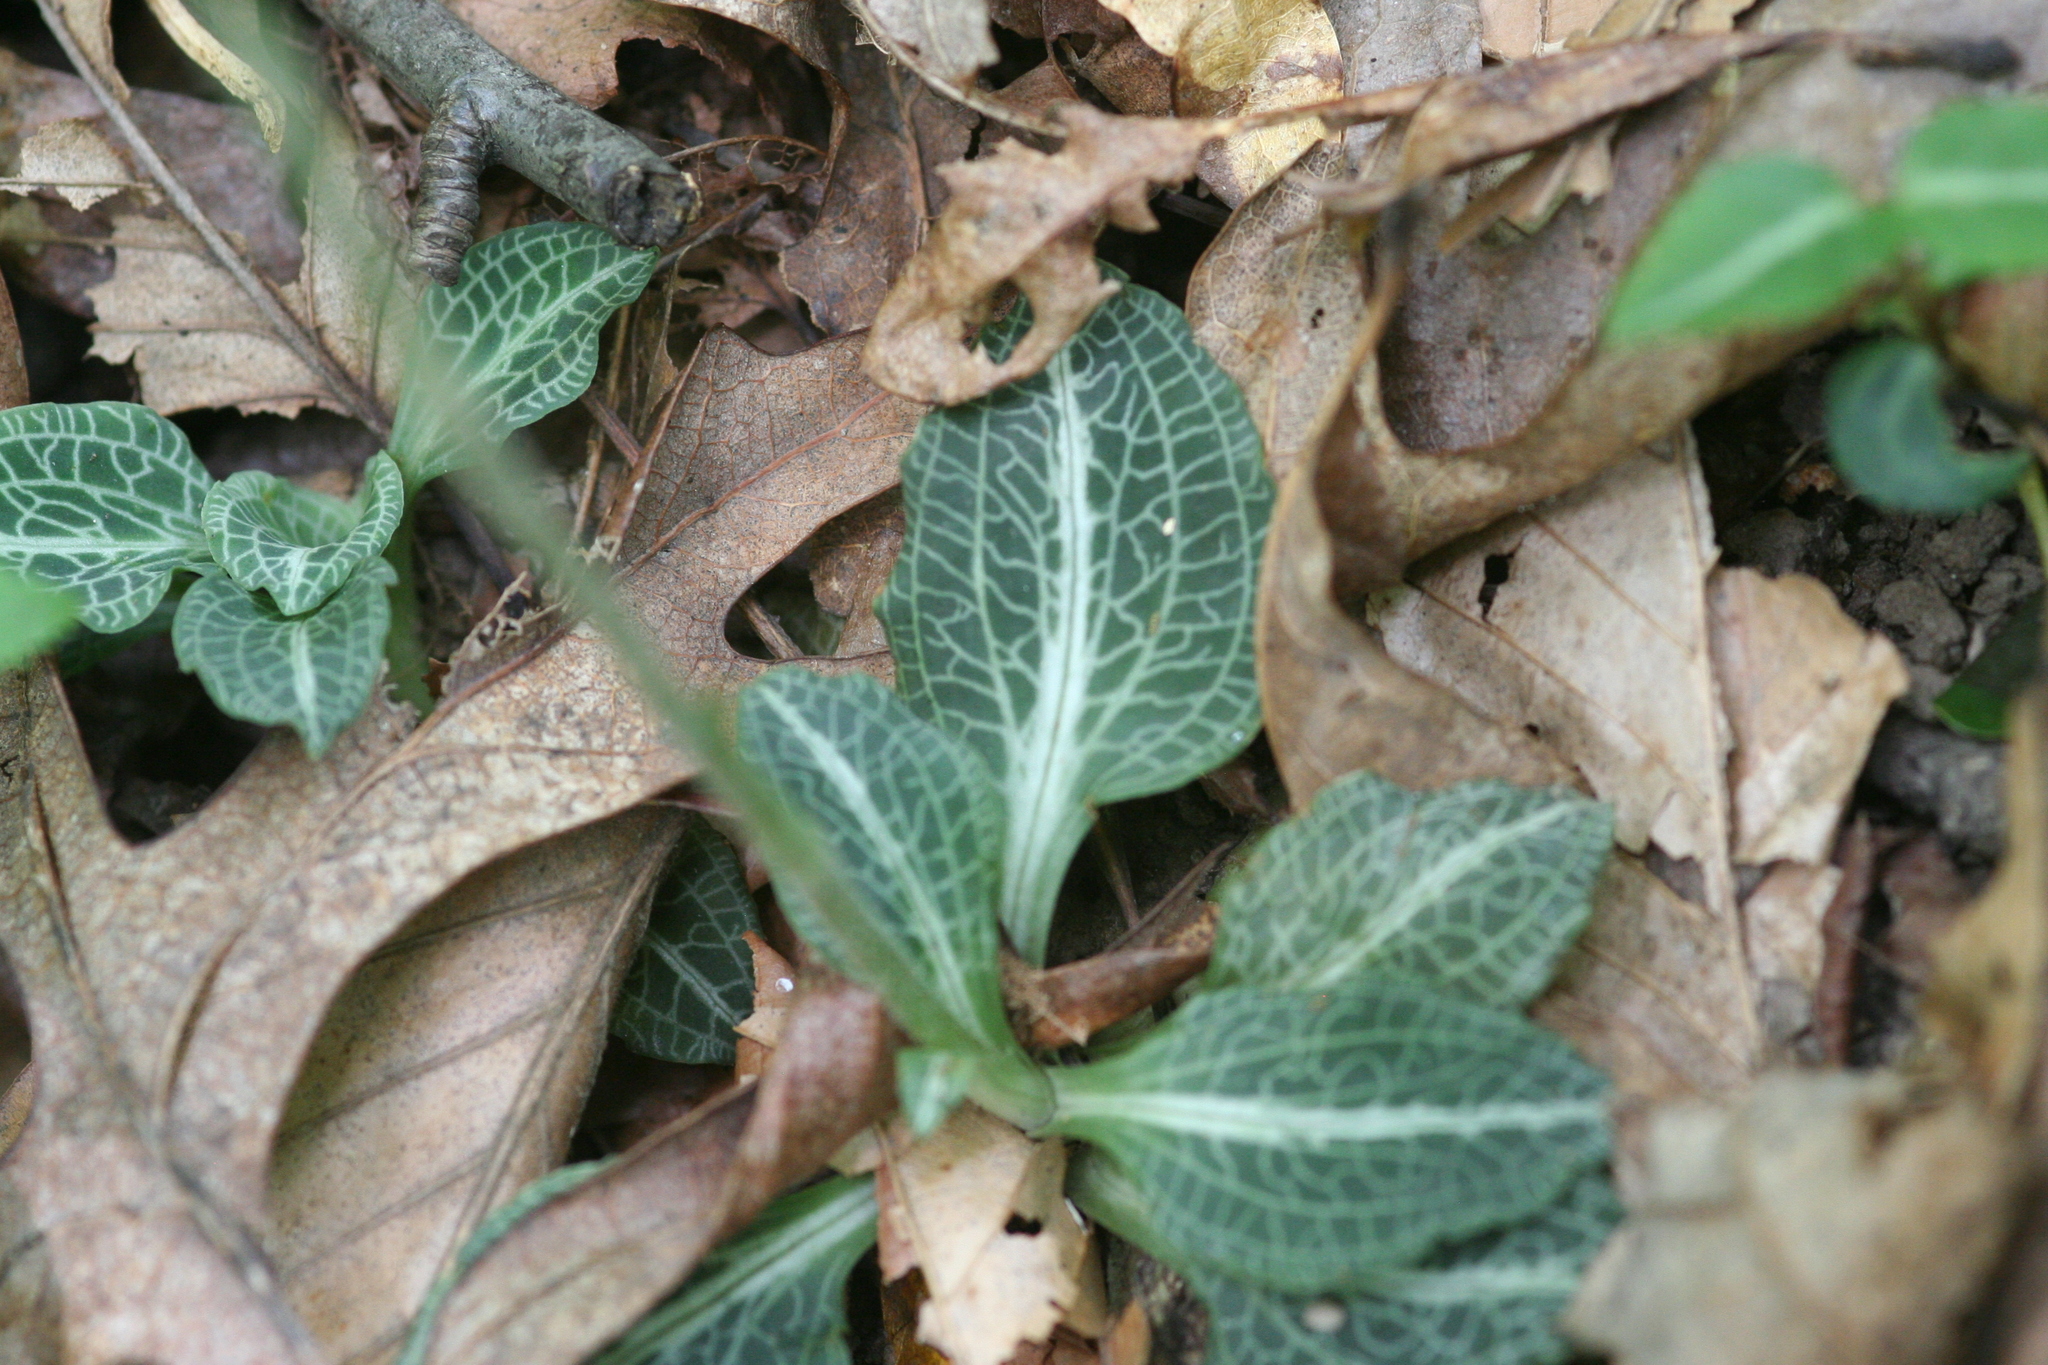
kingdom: Plantae
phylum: Tracheophyta
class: Liliopsida
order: Asparagales
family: Orchidaceae
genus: Goodyera
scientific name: Goodyera pubescens
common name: Downy rattlesnake-plantain
